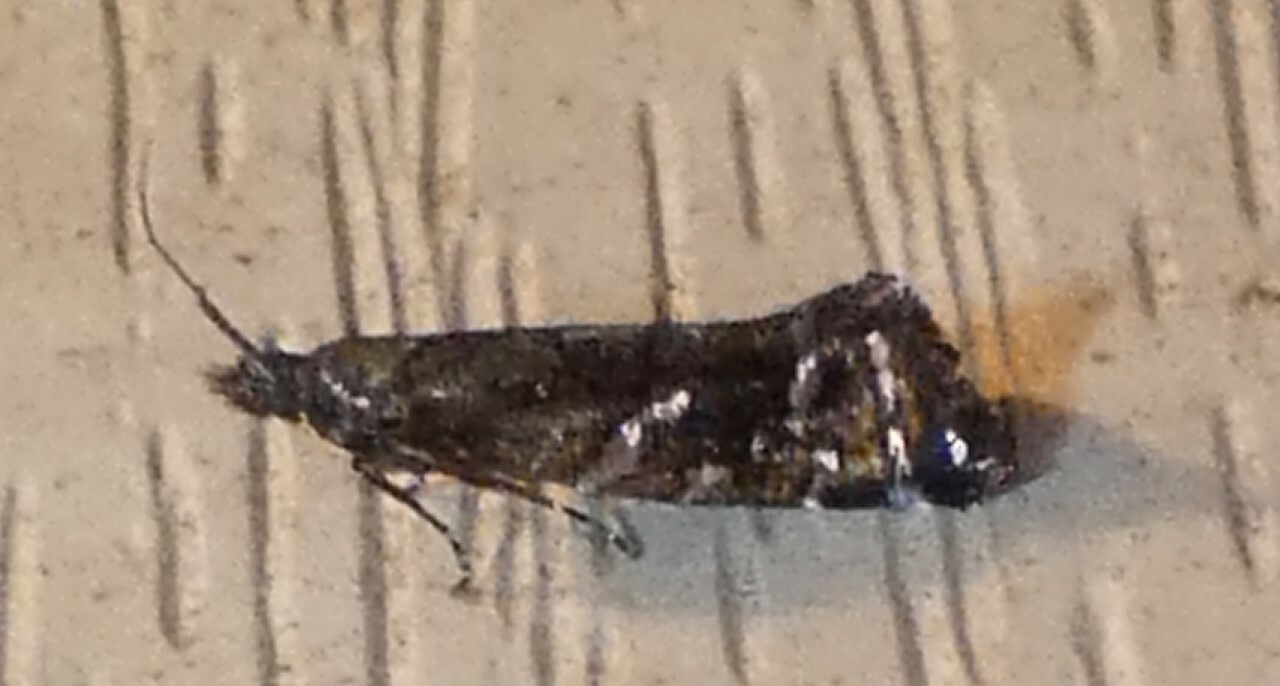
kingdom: Animalia
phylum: Arthropoda
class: Insecta
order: Lepidoptera
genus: Drymoana
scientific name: Drymoana
